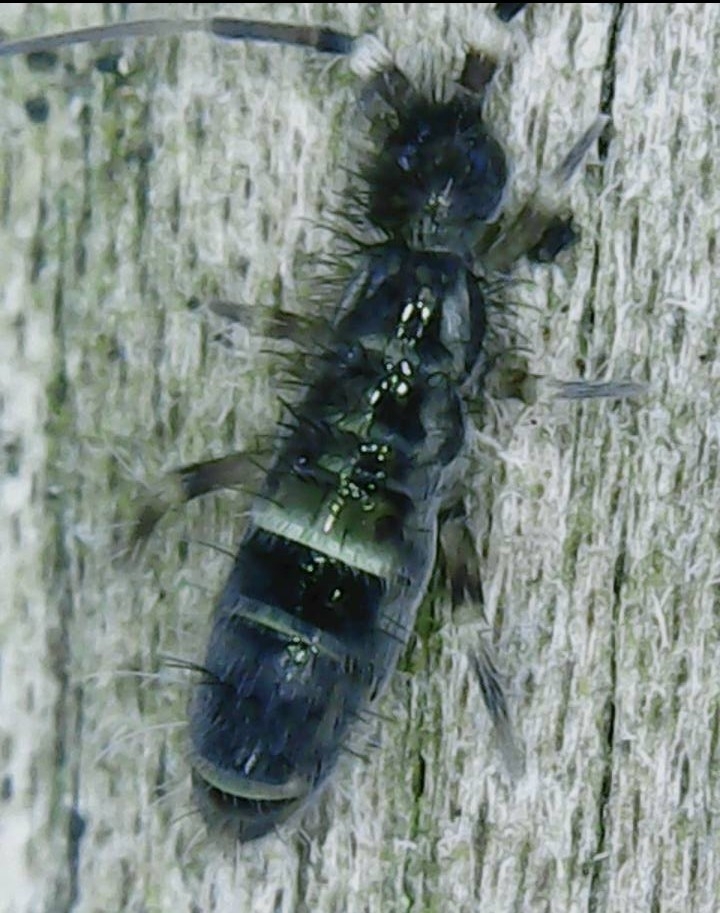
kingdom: Animalia
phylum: Arthropoda
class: Collembola
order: Entomobryomorpha
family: Orchesellidae
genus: Orchesella
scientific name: Orchesella cincta
